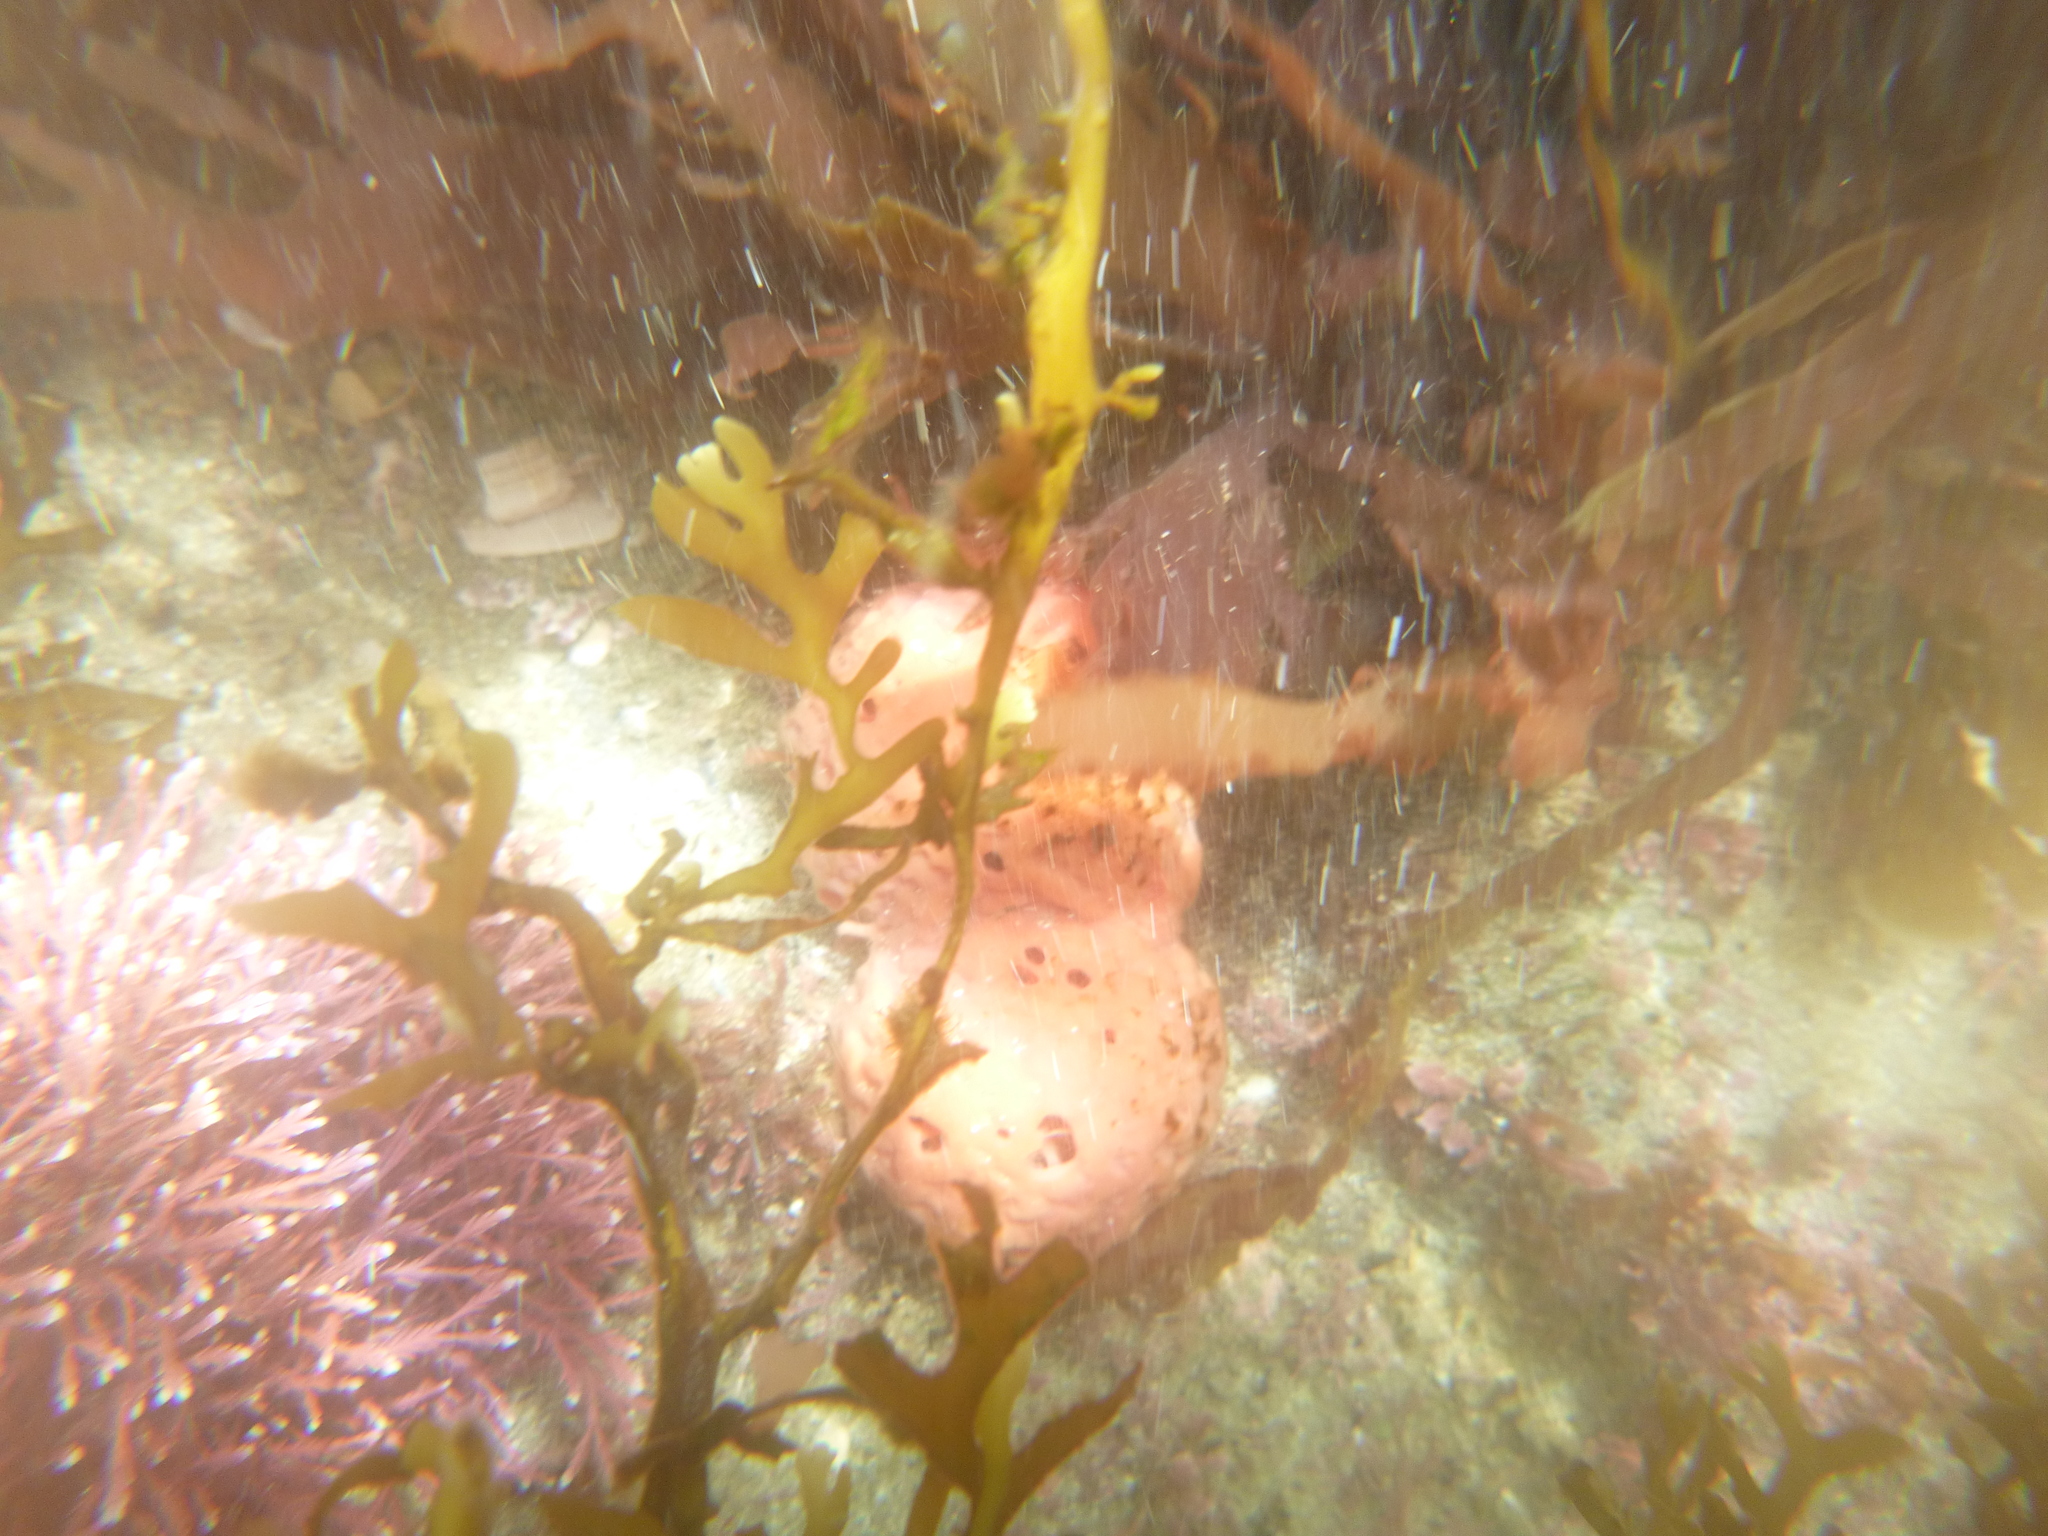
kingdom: Animalia
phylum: Porifera
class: Demospongiae
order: Tethyida
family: Tethyidae
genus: Tethya
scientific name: Tethya bergquistae
